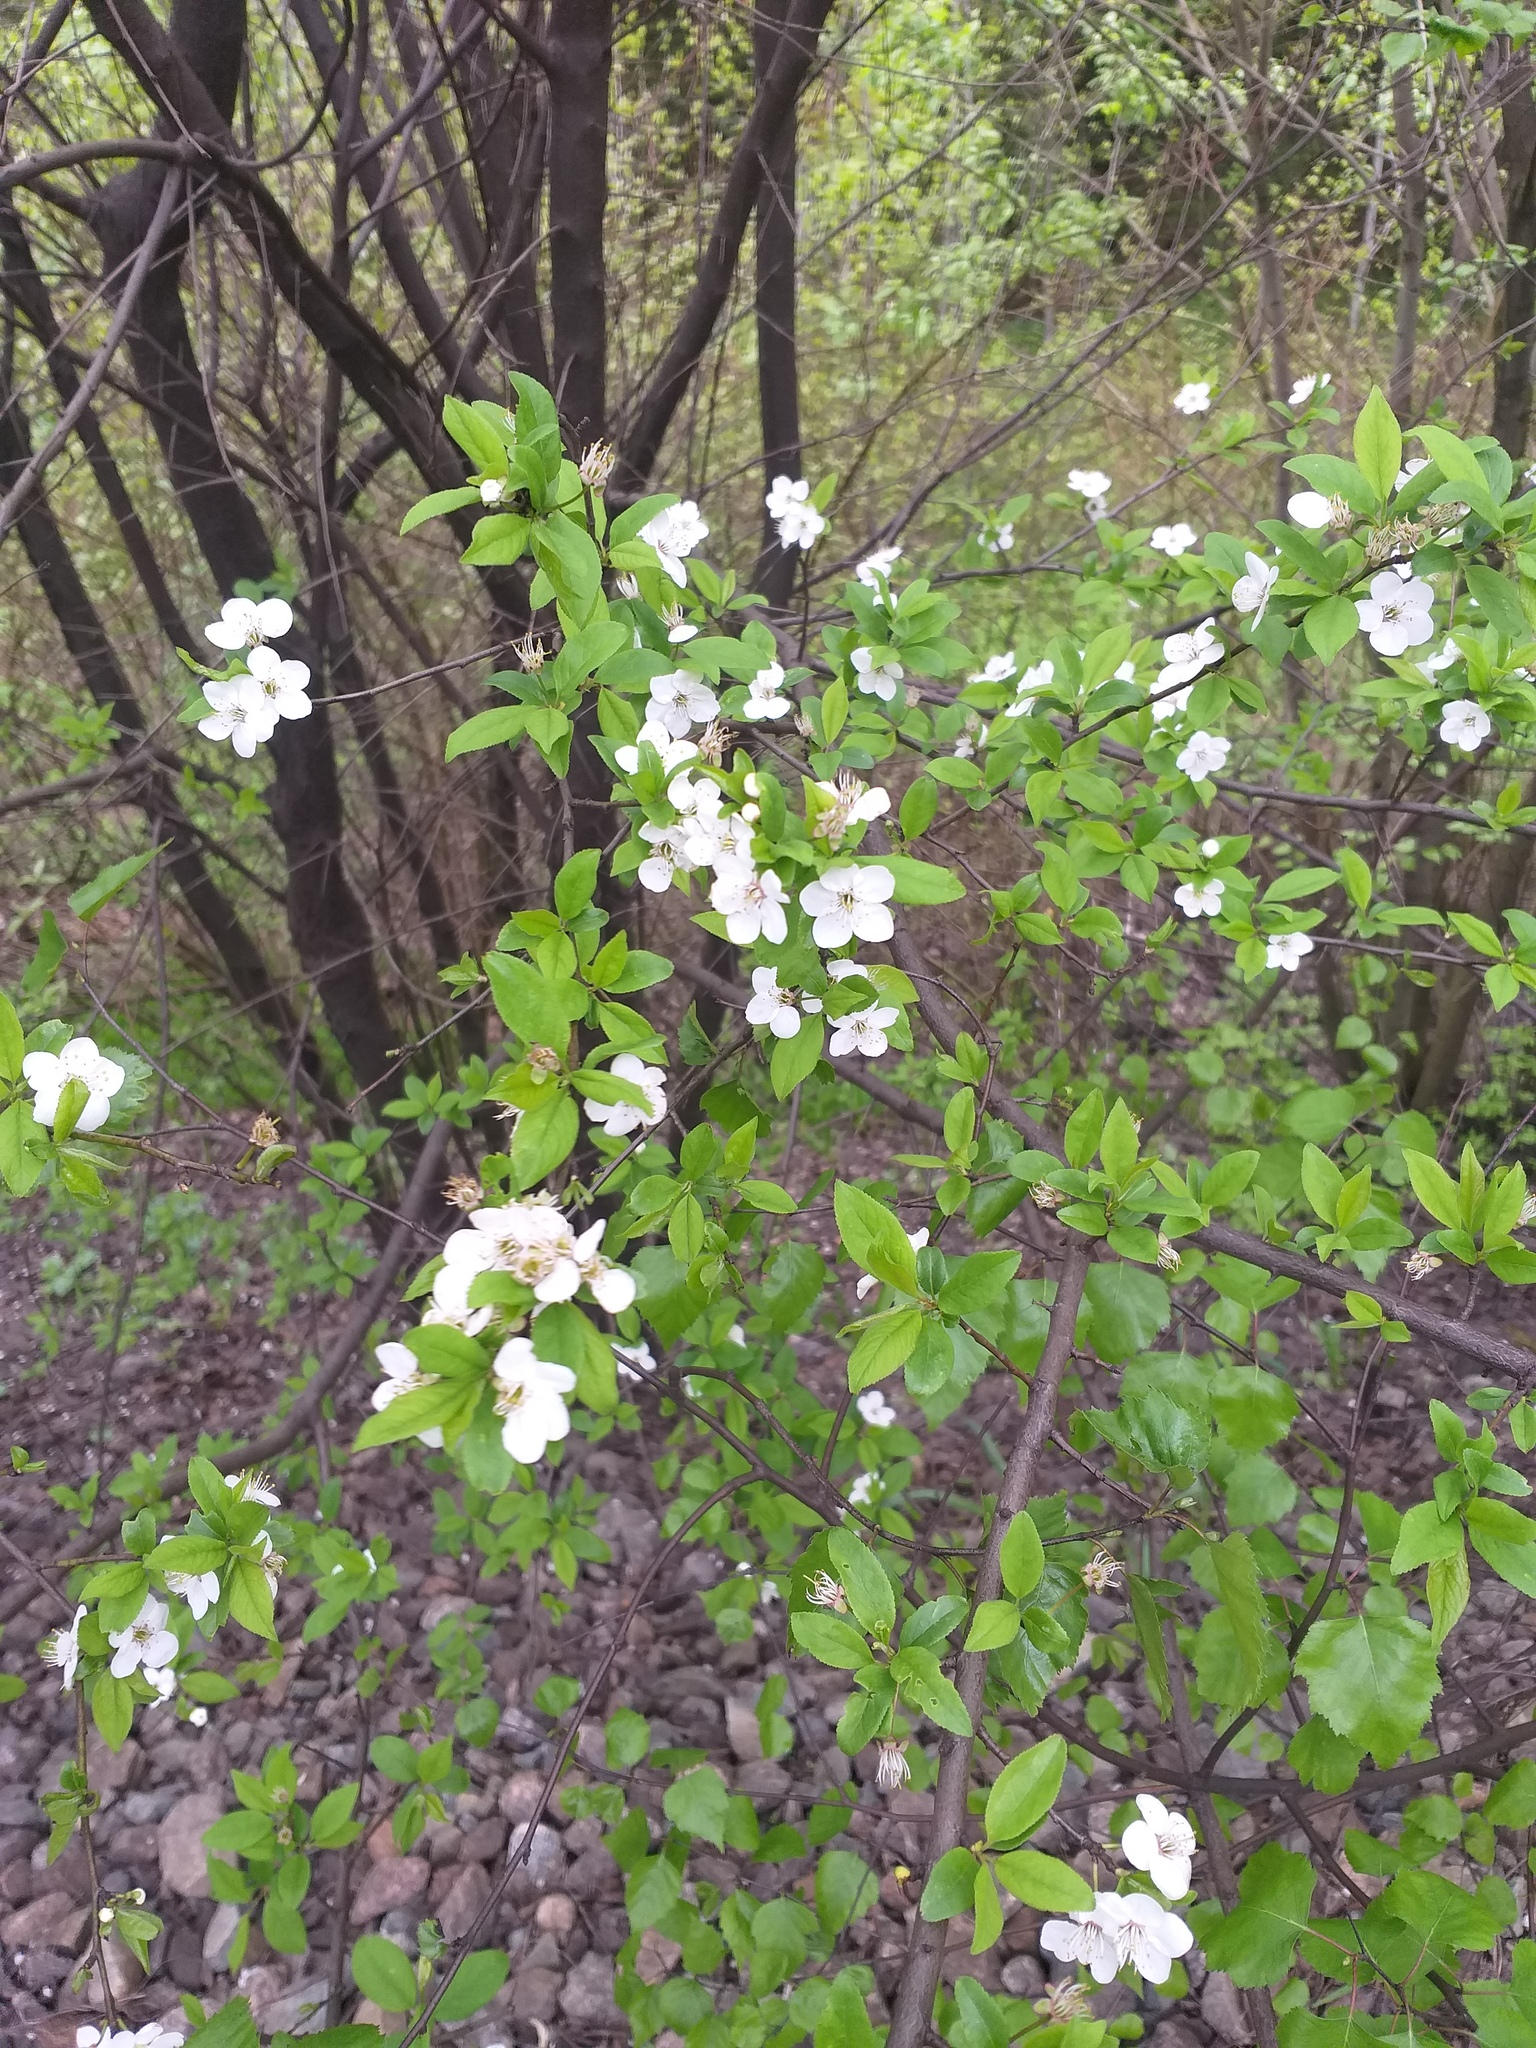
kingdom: Plantae
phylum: Tracheophyta
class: Magnoliopsida
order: Rosales
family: Rosaceae
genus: Prunus
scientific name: Prunus cerasifera
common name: Cherry plum
